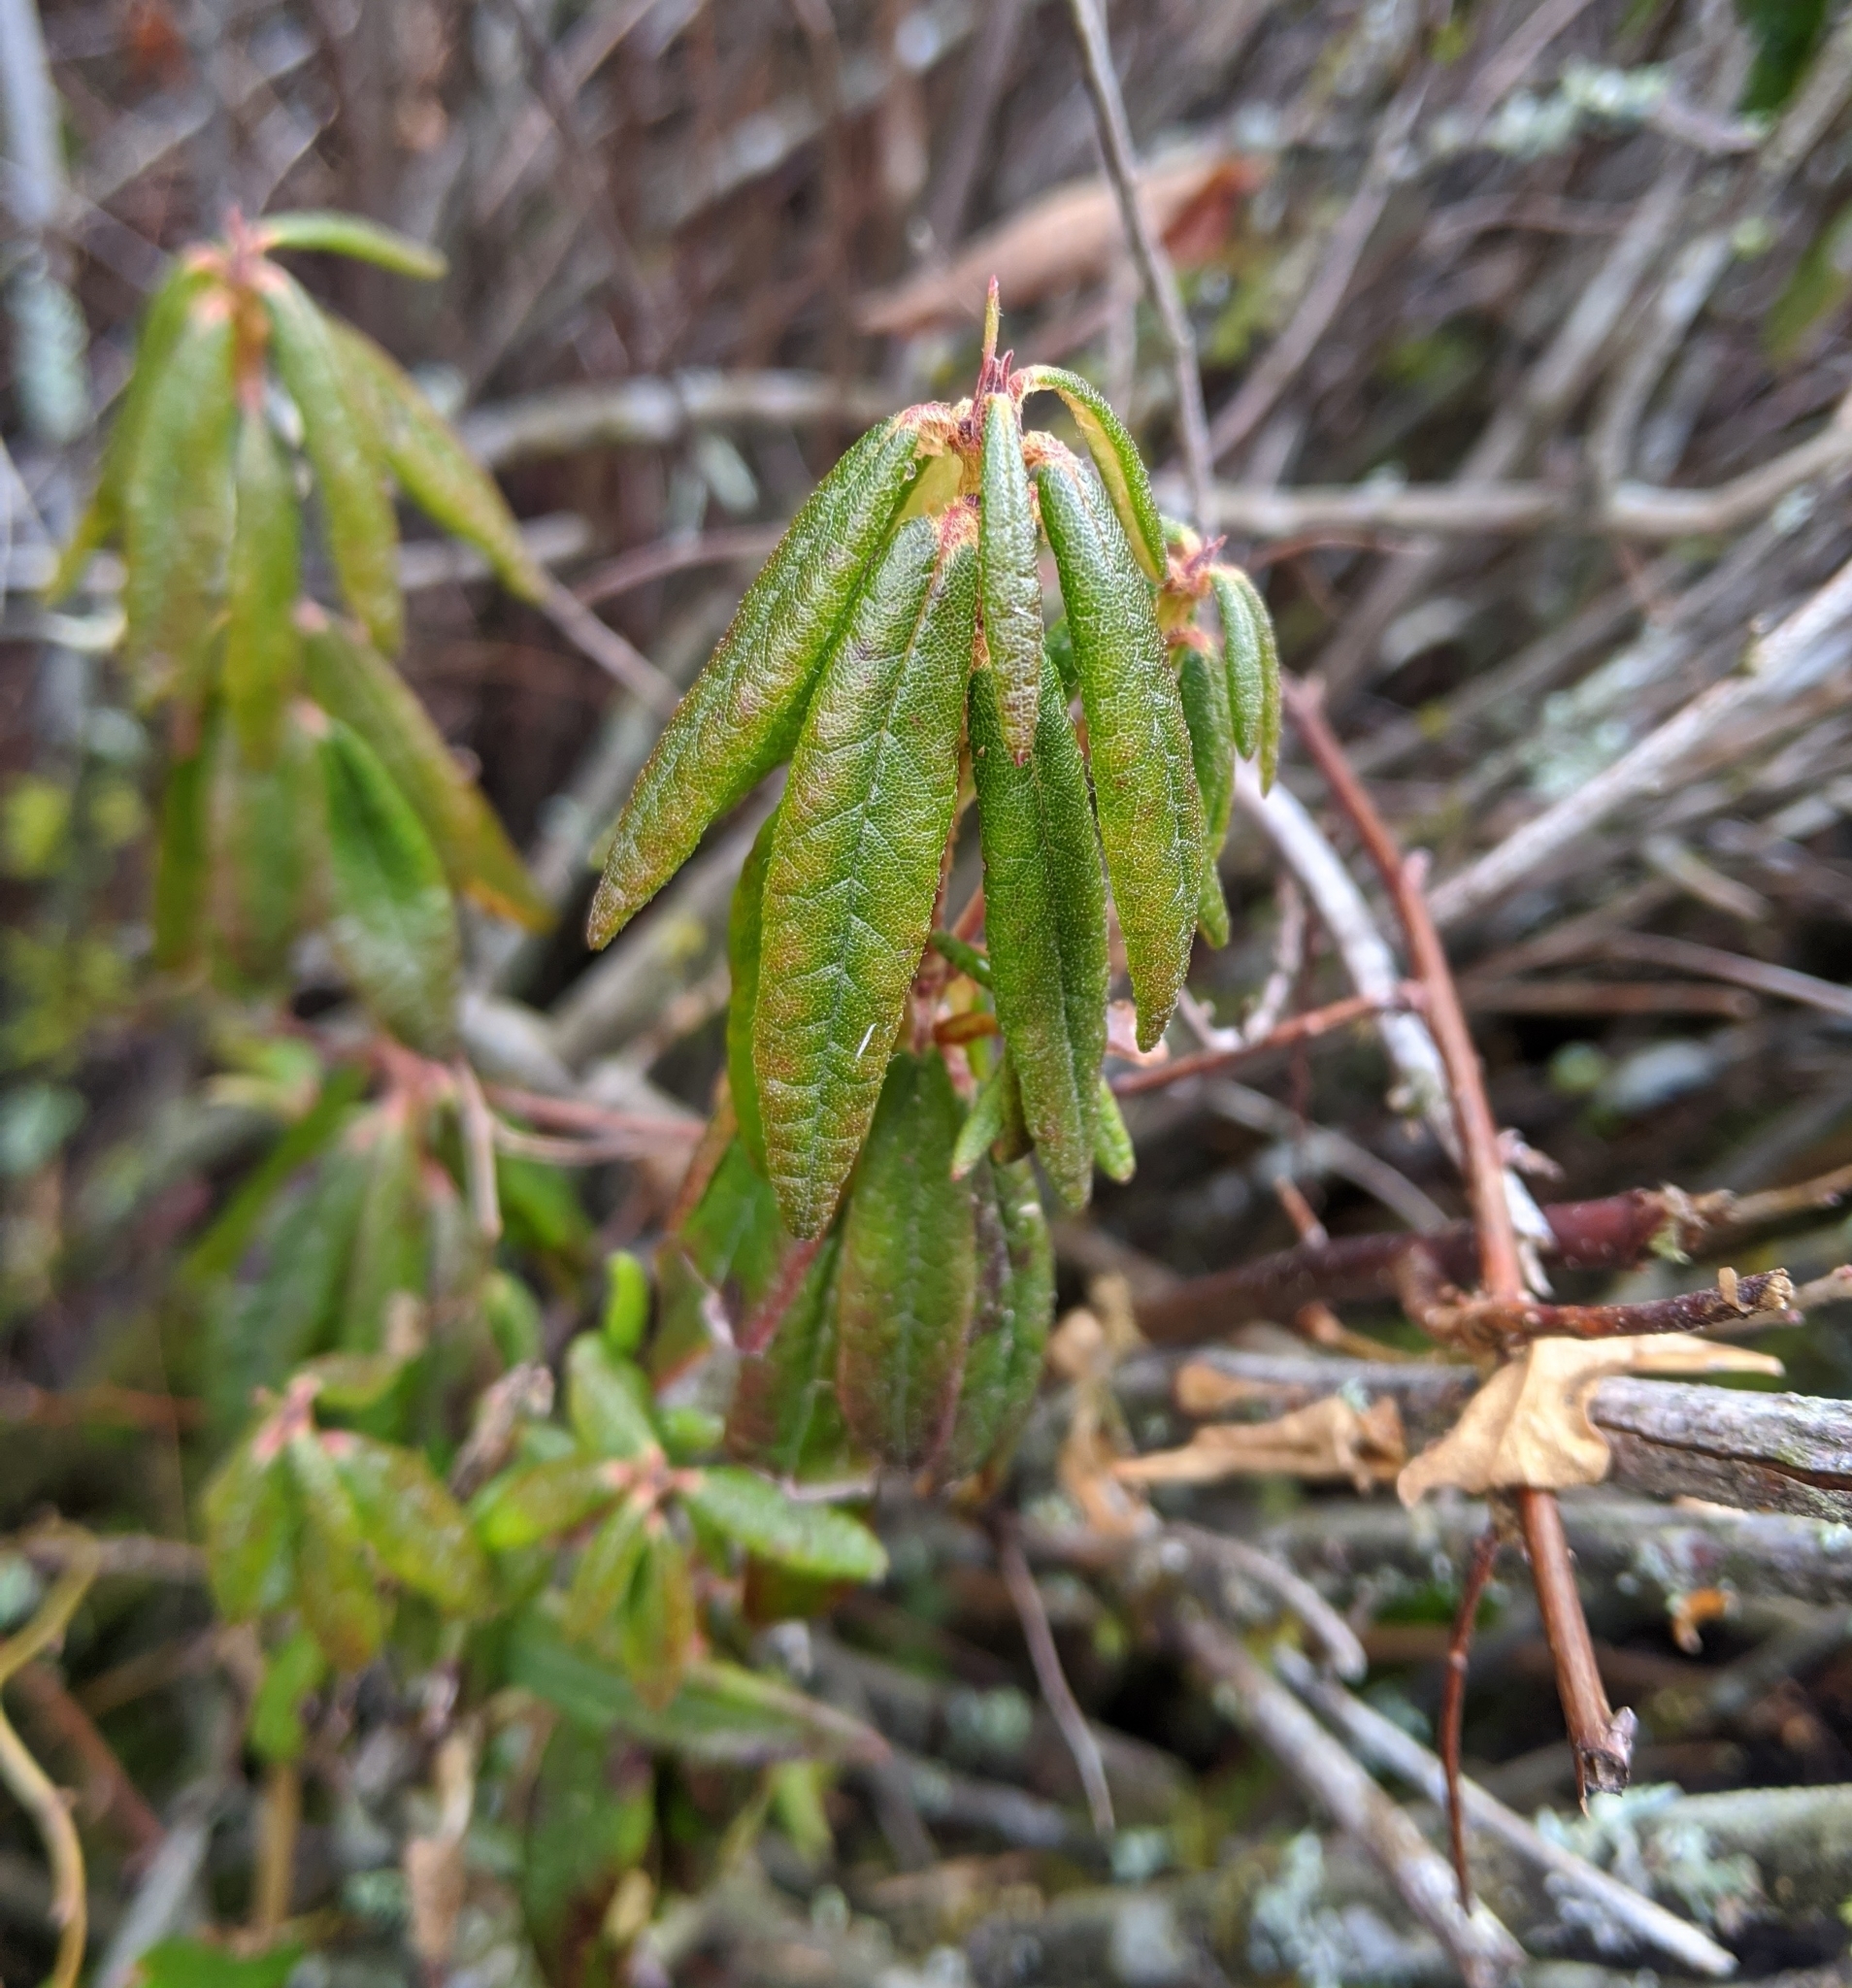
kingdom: Plantae
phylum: Tracheophyta
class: Magnoliopsida
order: Ericales
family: Ericaceae
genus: Rhododendron
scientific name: Rhododendron groenlandicum
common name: Bog labrador tea
